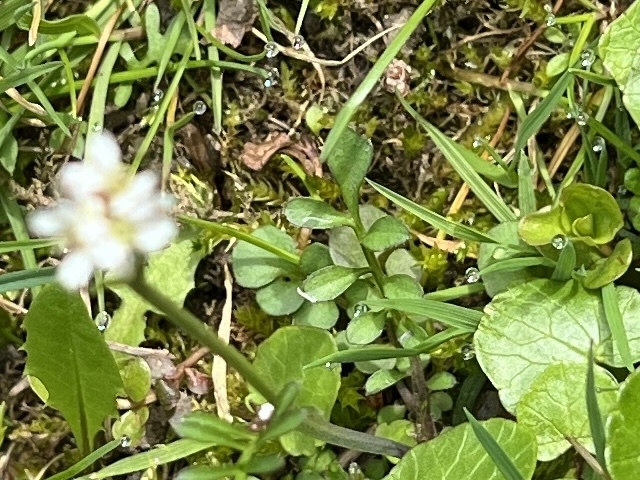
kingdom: Plantae
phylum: Tracheophyta
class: Magnoliopsida
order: Brassicales
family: Brassicaceae
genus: Cardamine
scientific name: Cardamine hirsuta
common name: Hairy bittercress
